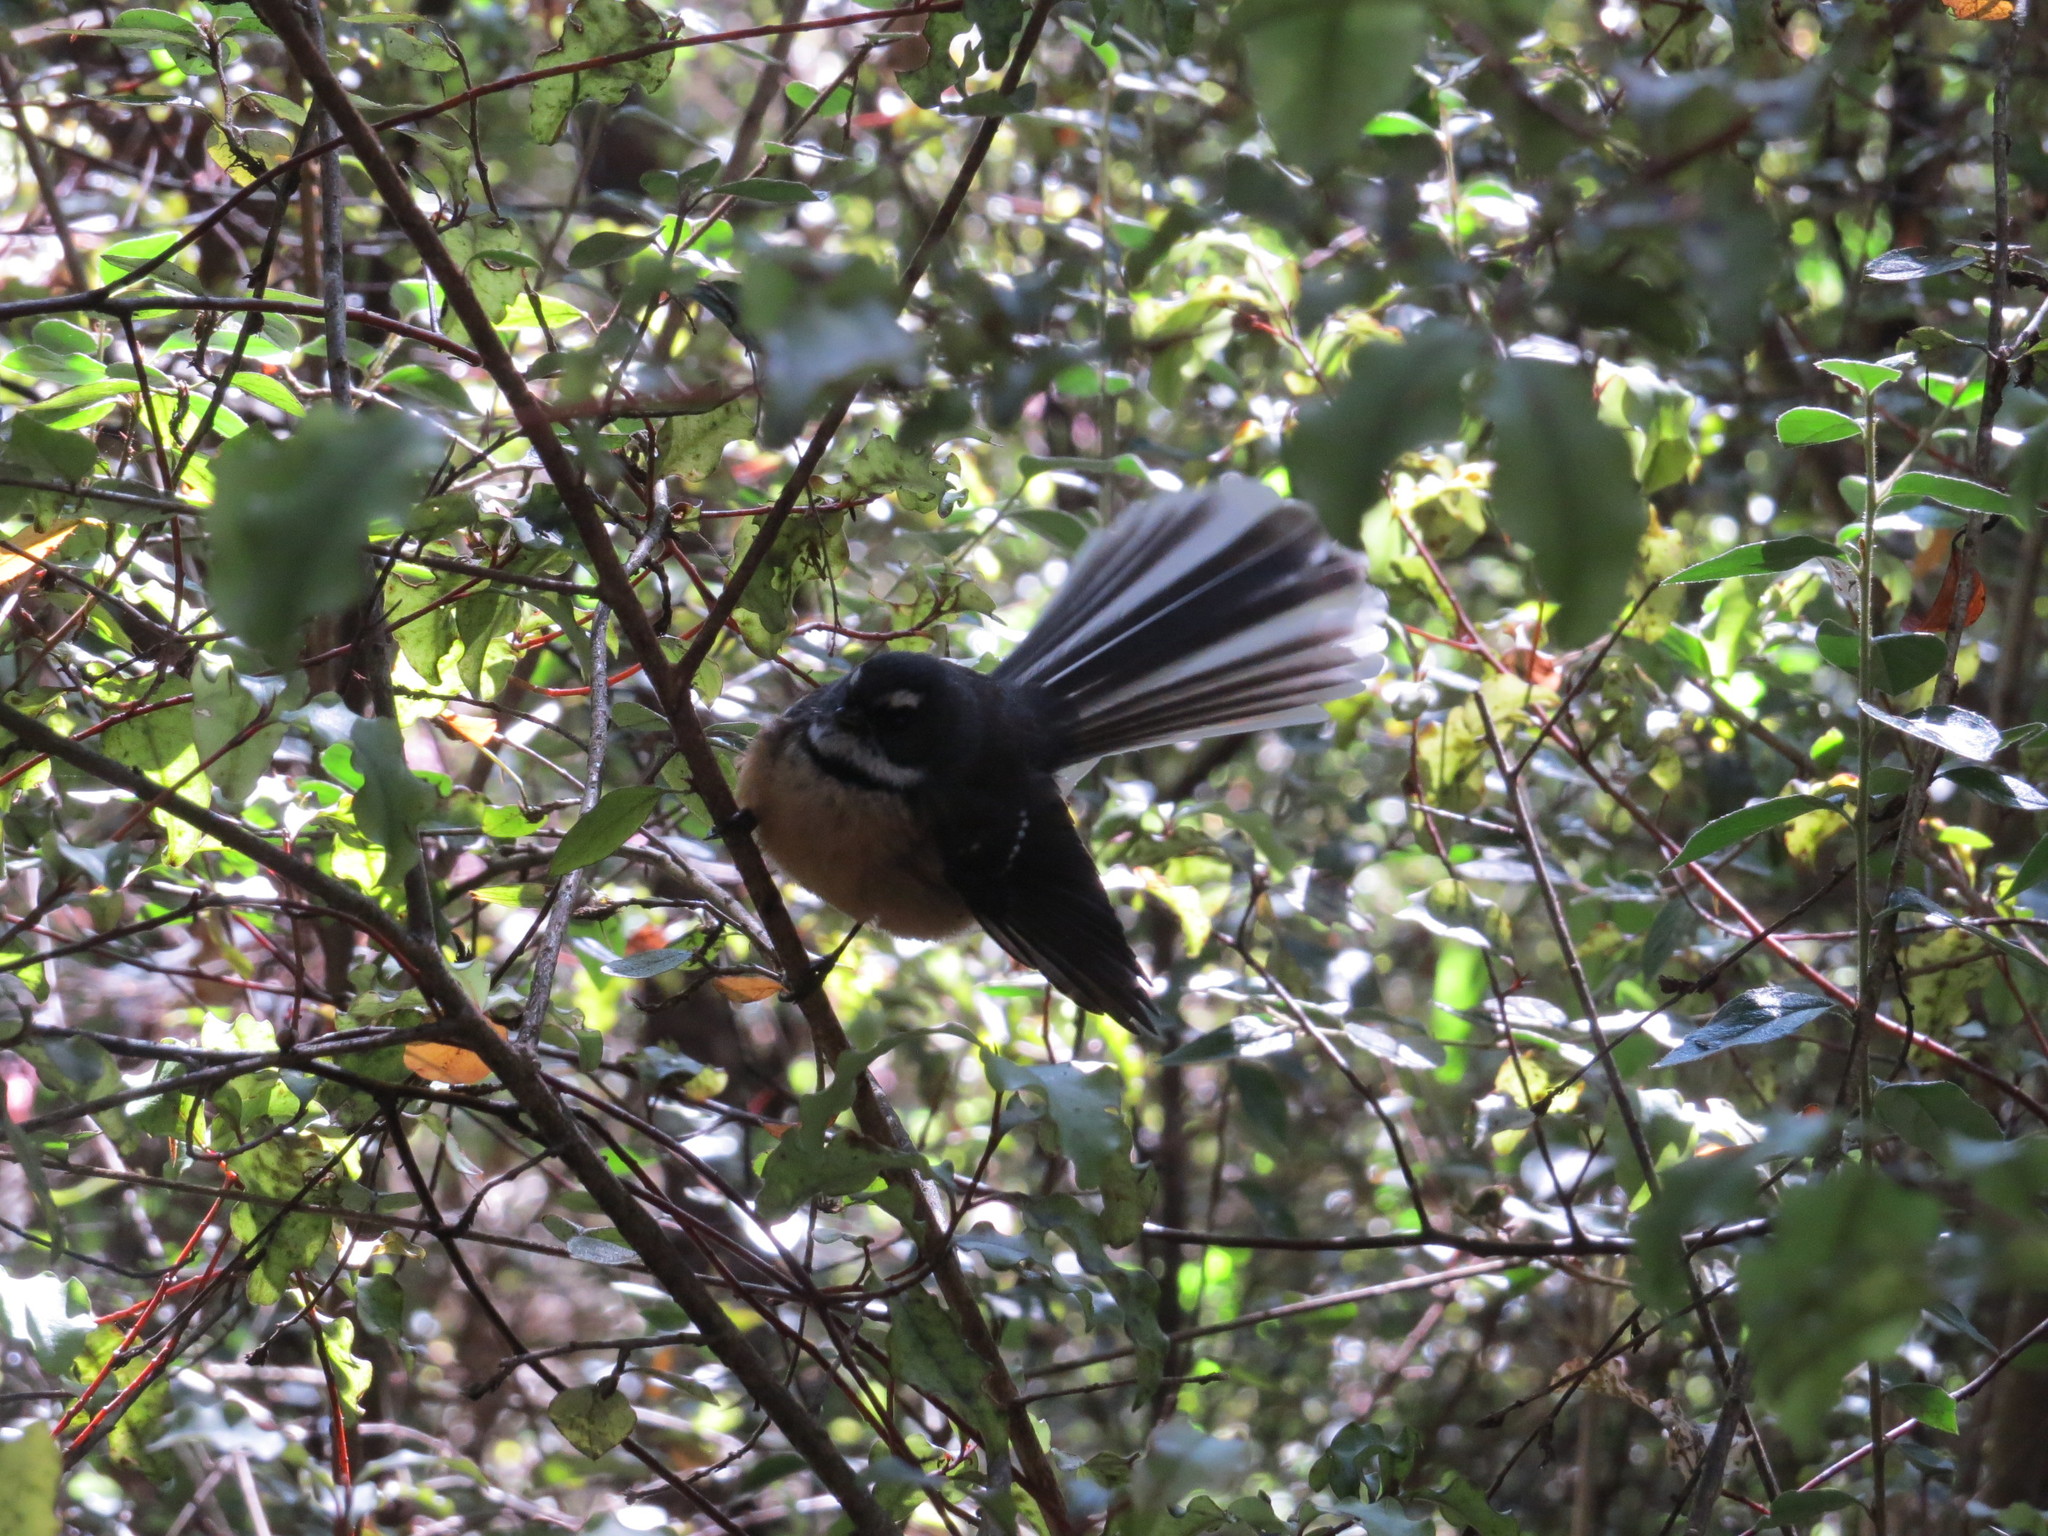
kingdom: Animalia
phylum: Chordata
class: Aves
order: Passeriformes
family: Rhipiduridae
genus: Rhipidura
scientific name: Rhipidura fuliginosa
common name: New zealand fantail
